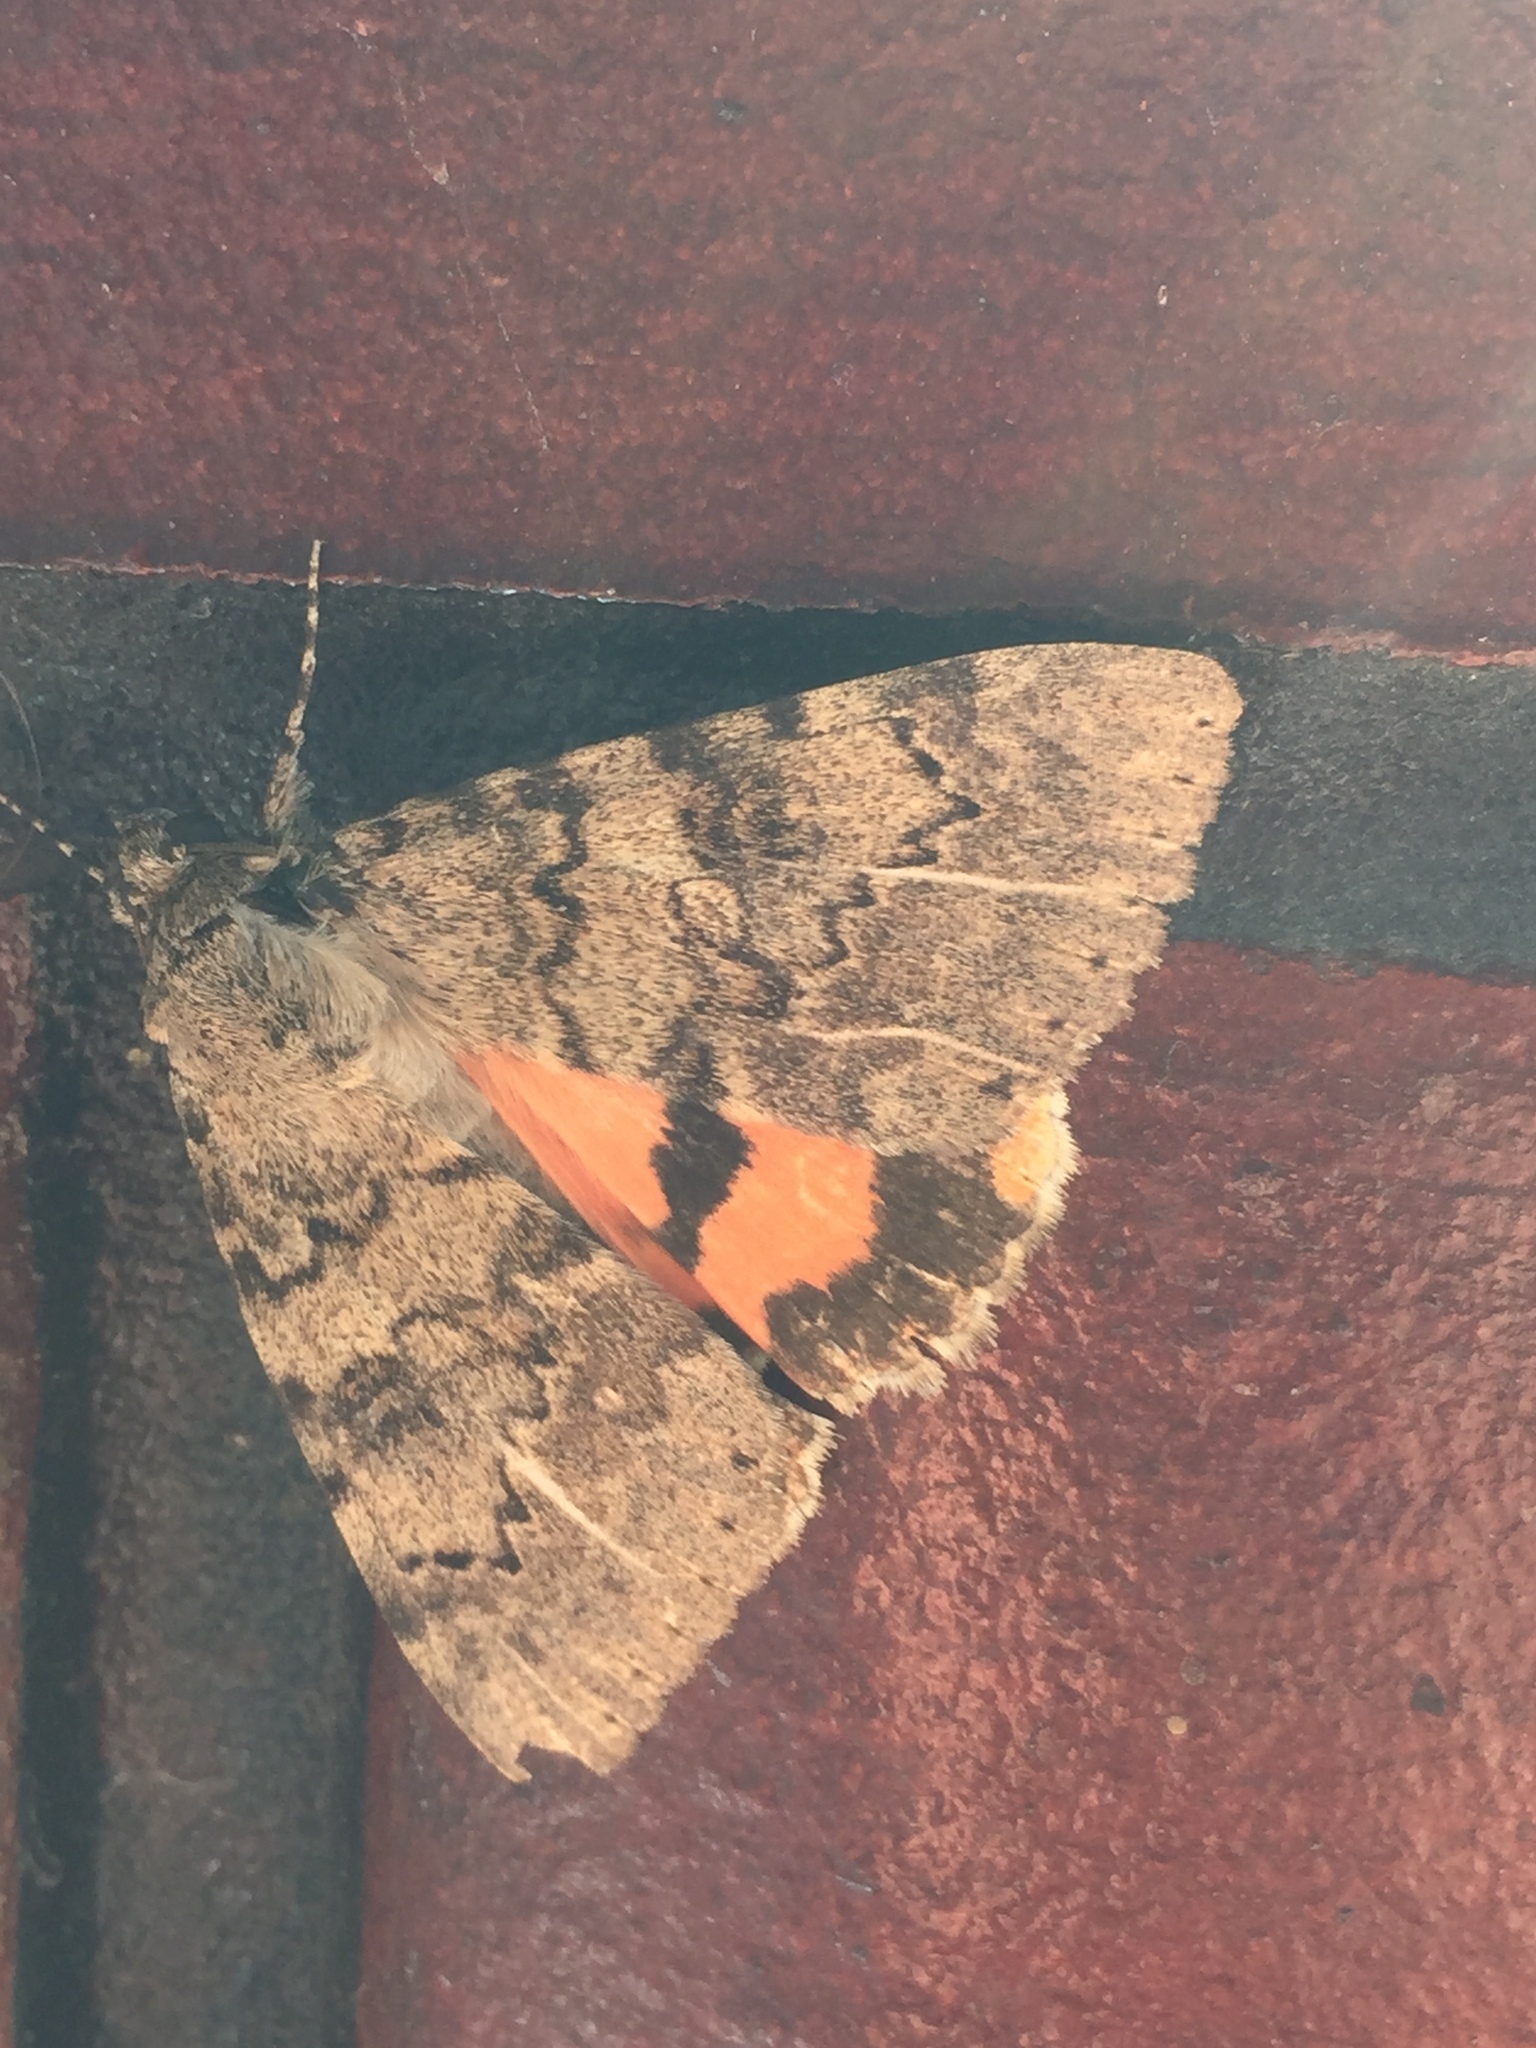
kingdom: Animalia
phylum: Arthropoda
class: Insecta
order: Lepidoptera
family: Erebidae
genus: Catocala
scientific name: Catocala puerpera
